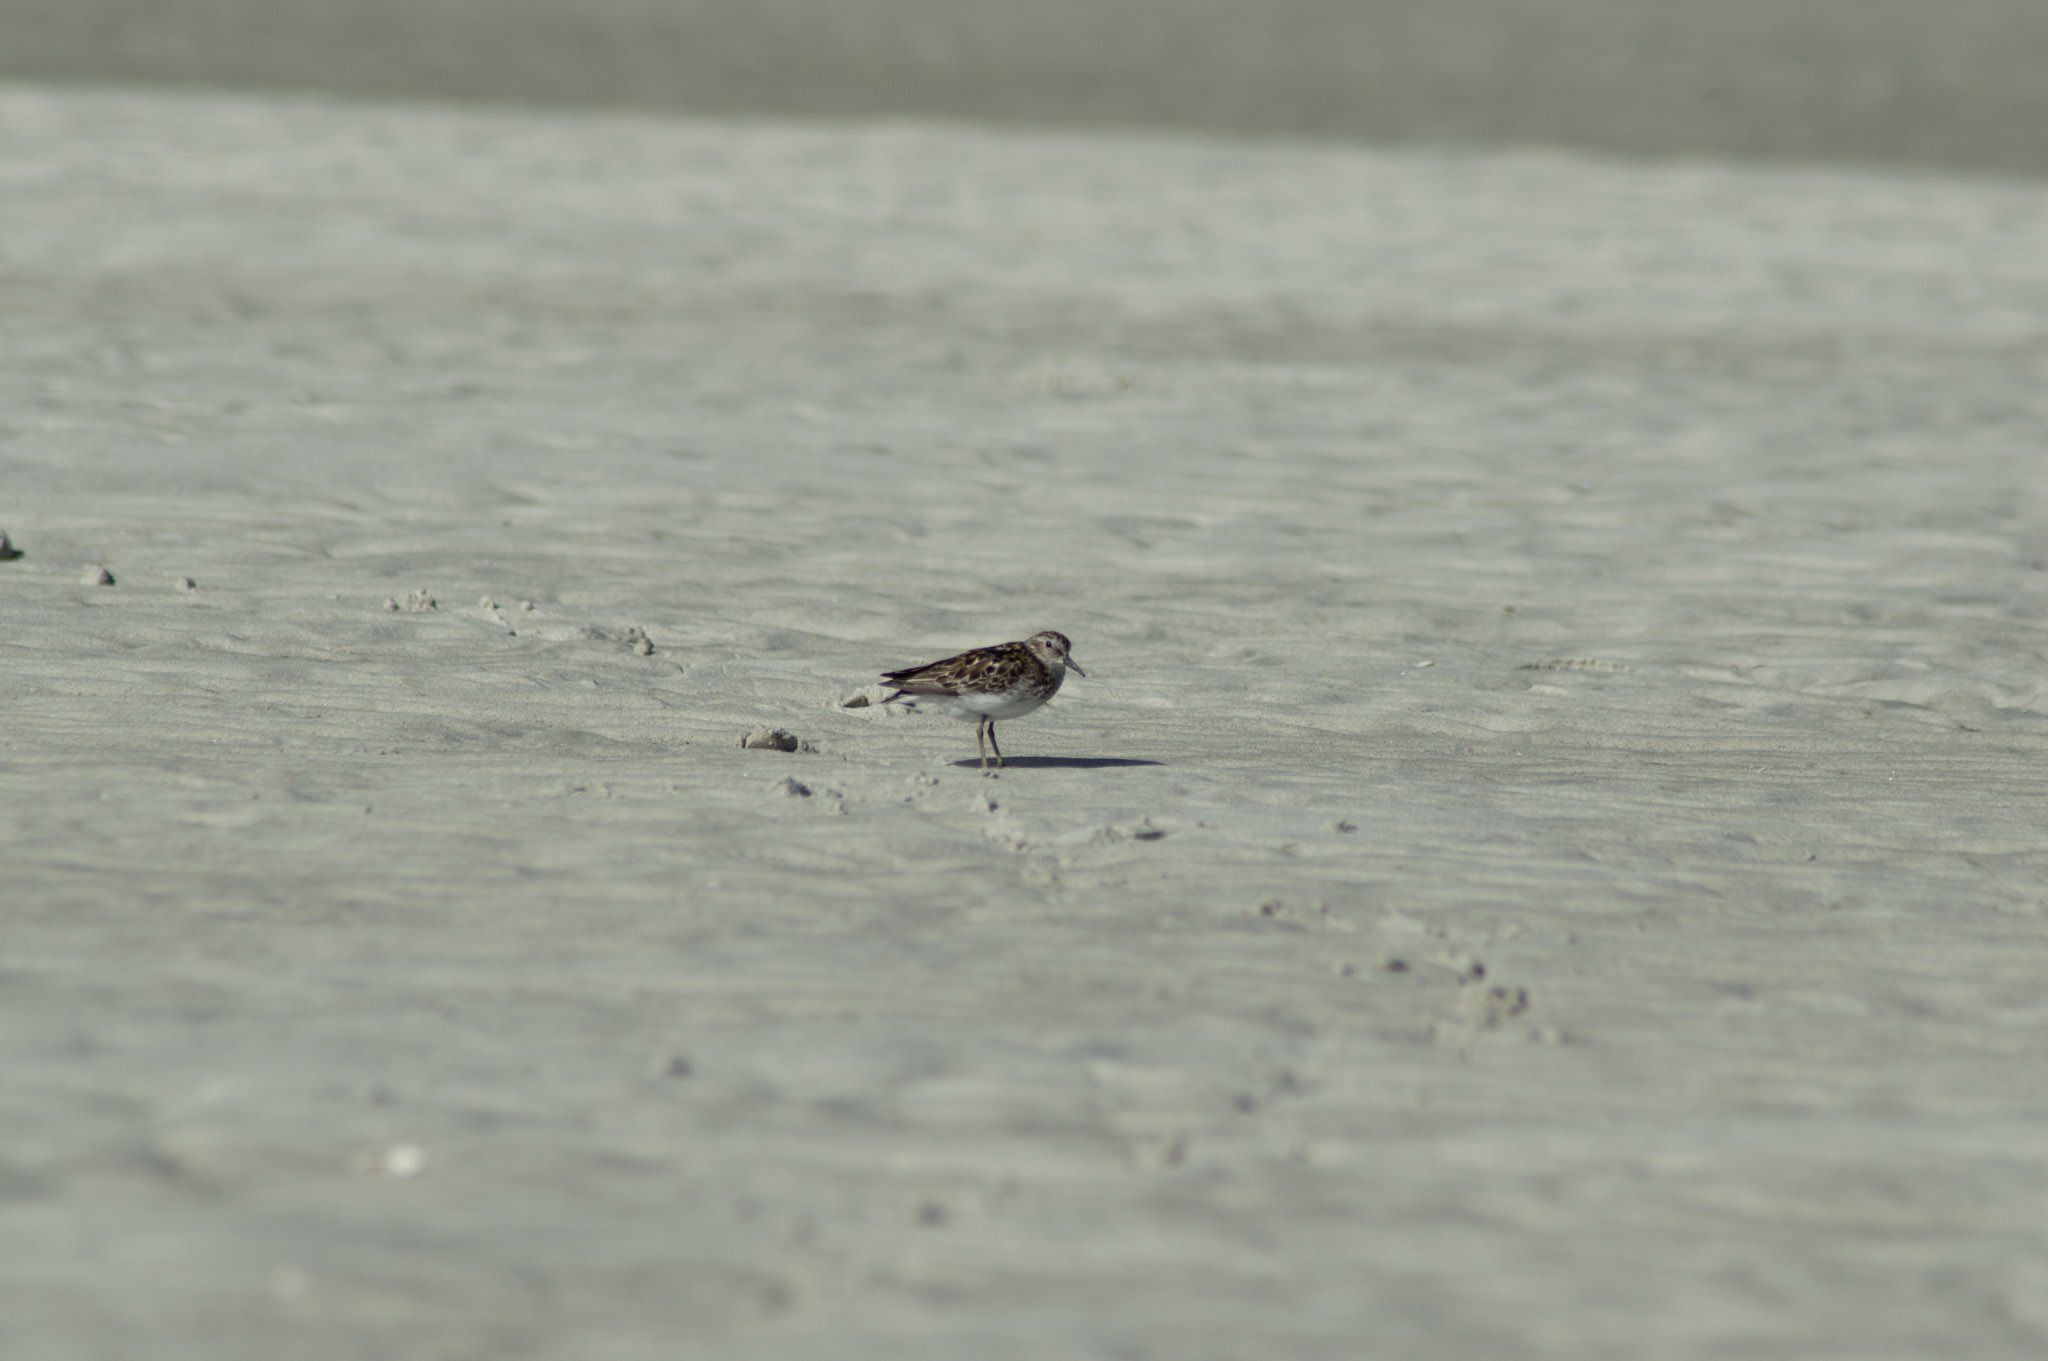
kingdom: Animalia
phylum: Chordata
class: Aves
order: Charadriiformes
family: Scolopacidae
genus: Calidris
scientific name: Calidris minutilla
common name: Least sandpiper
